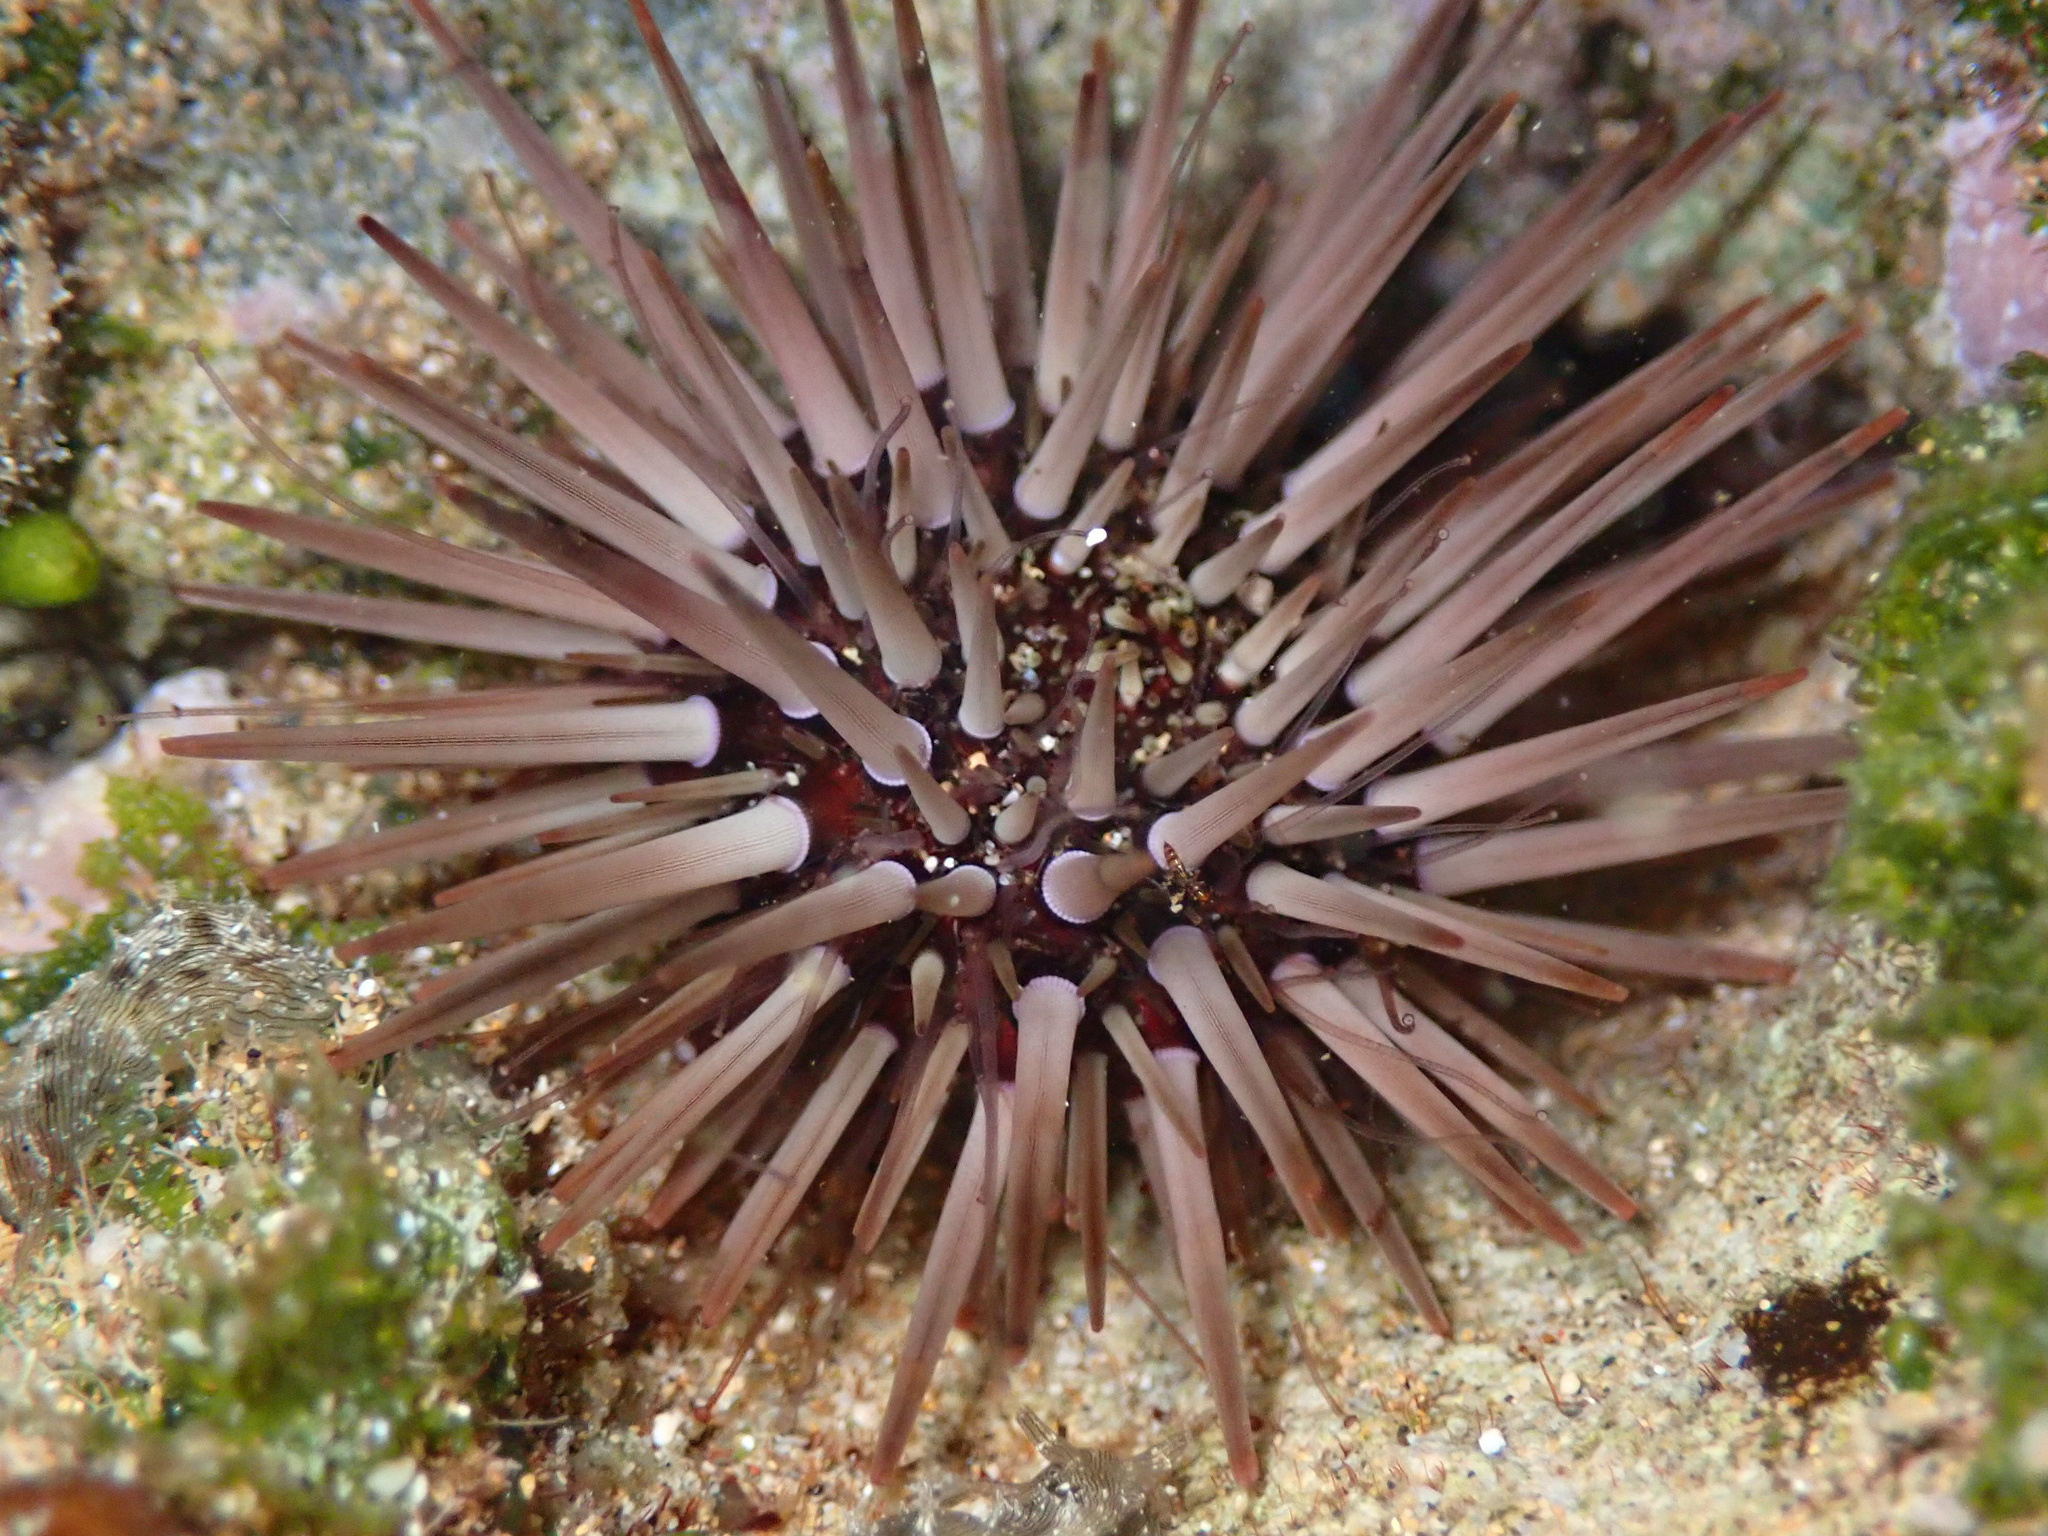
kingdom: Animalia
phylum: Echinodermata
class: Echinoidea
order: Camarodonta
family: Echinometridae
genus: Echinometra
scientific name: Echinometra mathaei
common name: Rock-boring urchin
